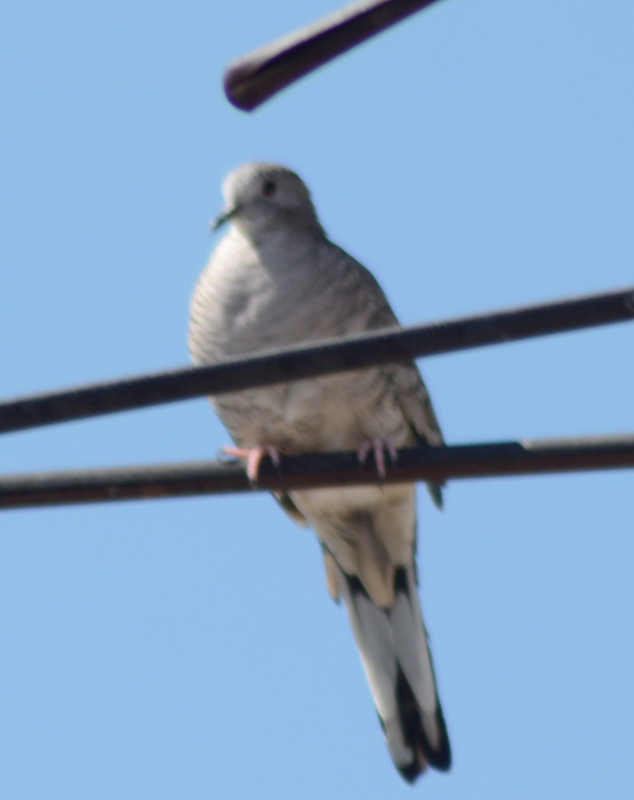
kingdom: Animalia
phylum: Chordata
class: Aves
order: Columbiformes
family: Columbidae
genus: Columbina
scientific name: Columbina inca
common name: Inca dove
